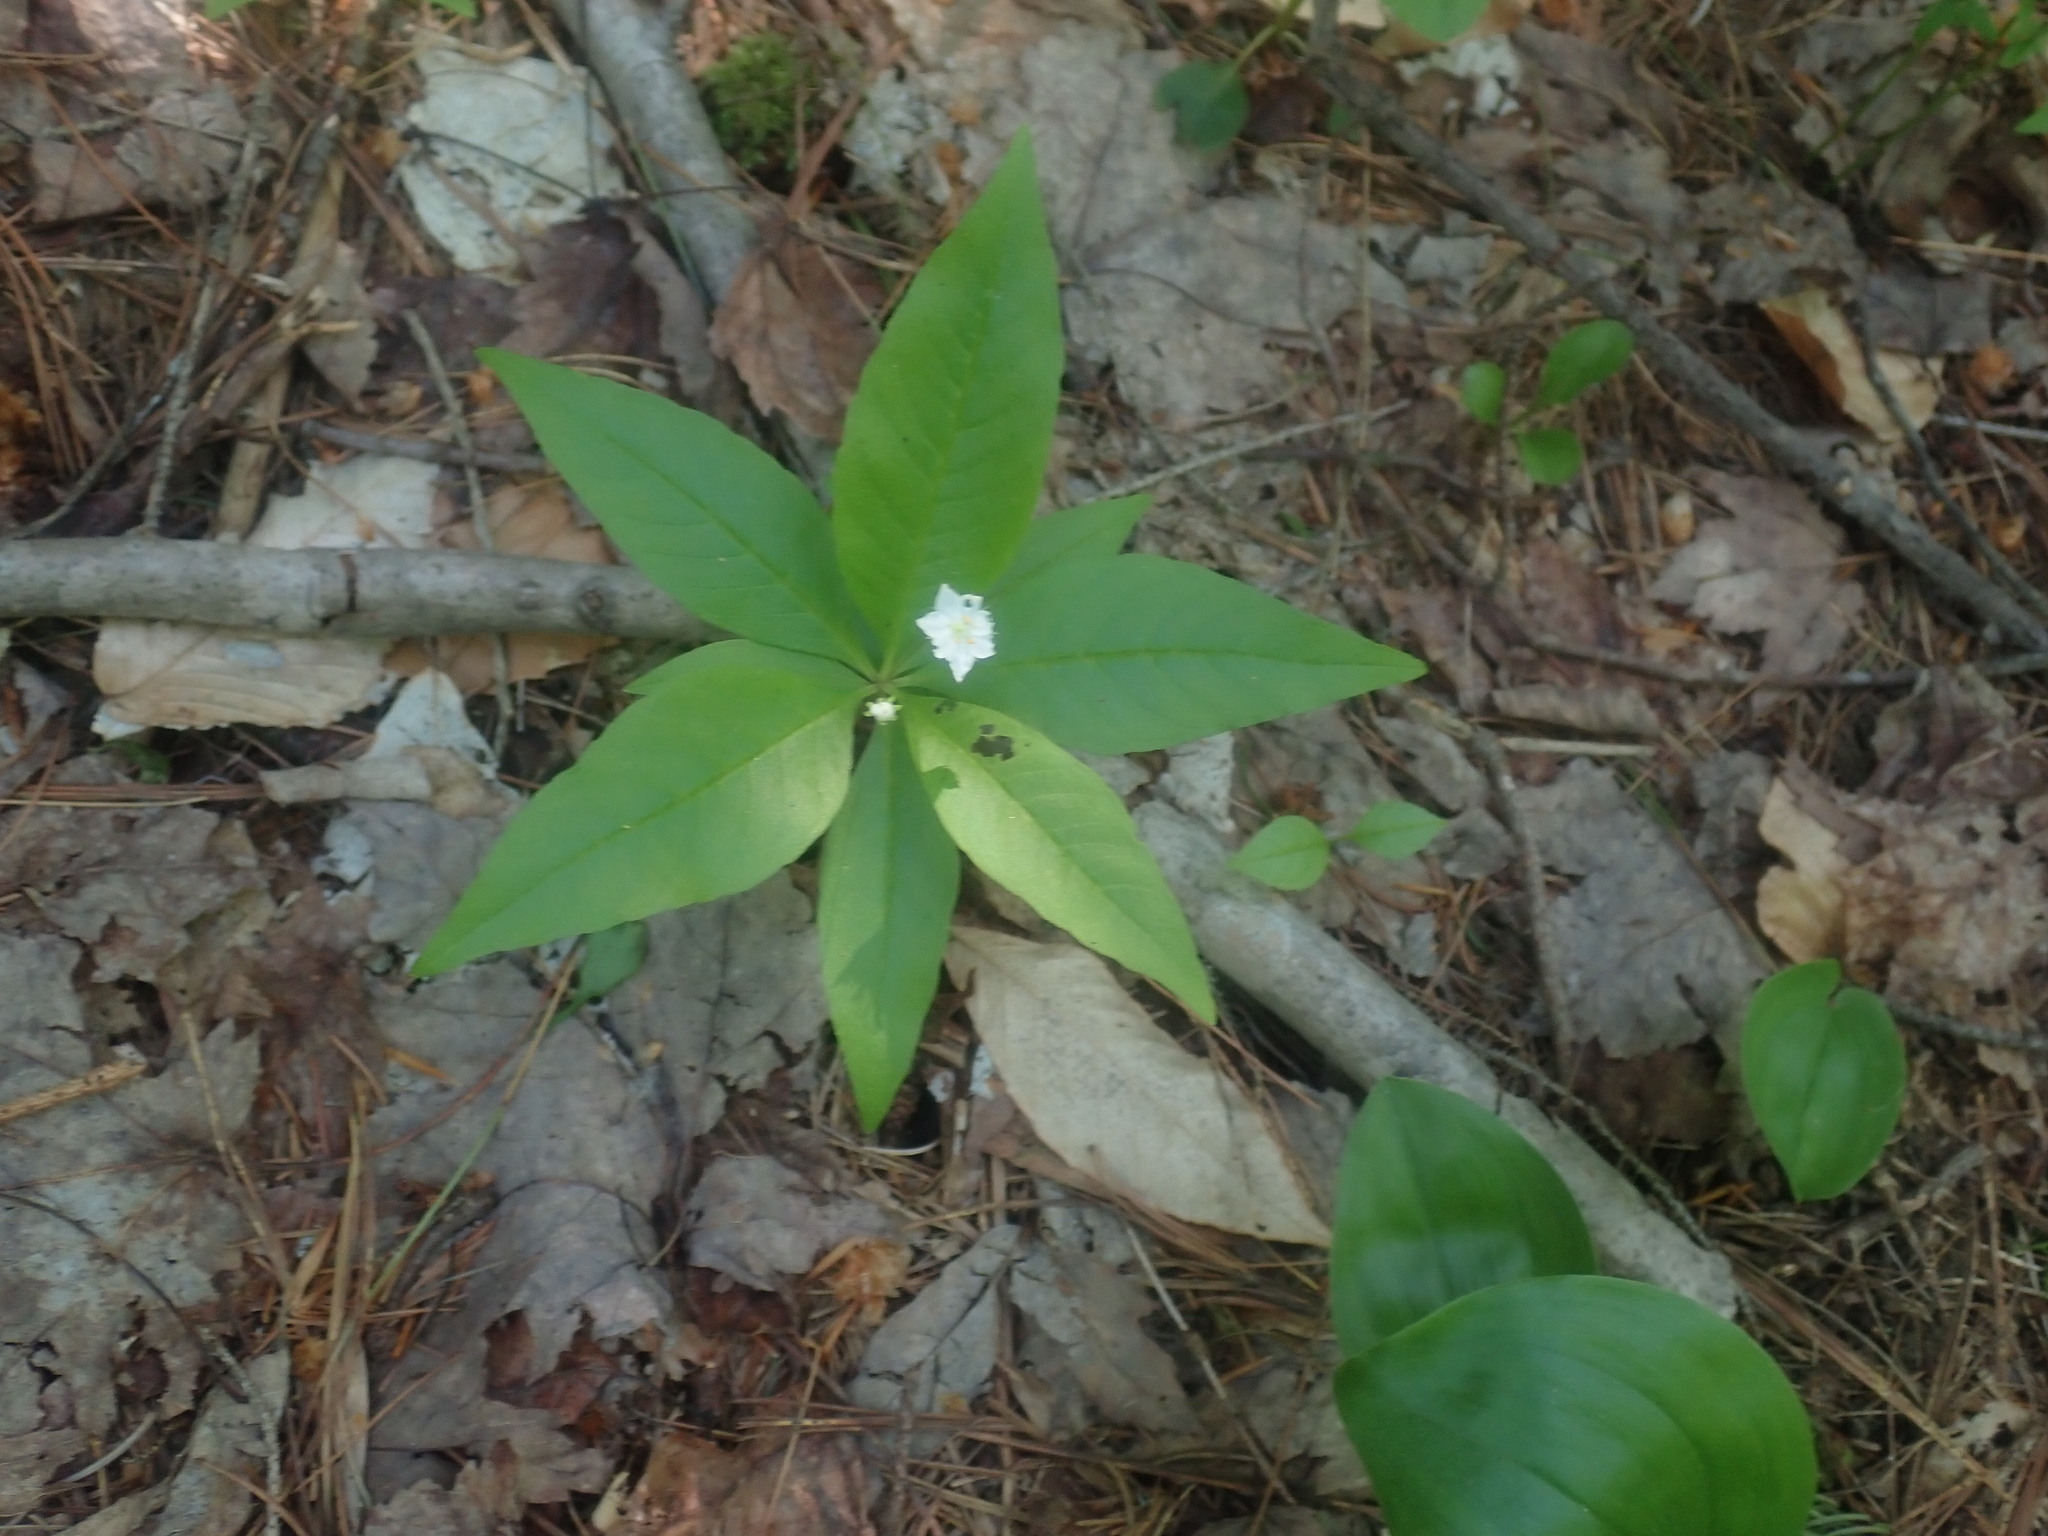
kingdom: Plantae
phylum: Tracheophyta
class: Magnoliopsida
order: Ericales
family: Primulaceae
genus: Lysimachia
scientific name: Lysimachia borealis
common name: American starflower
